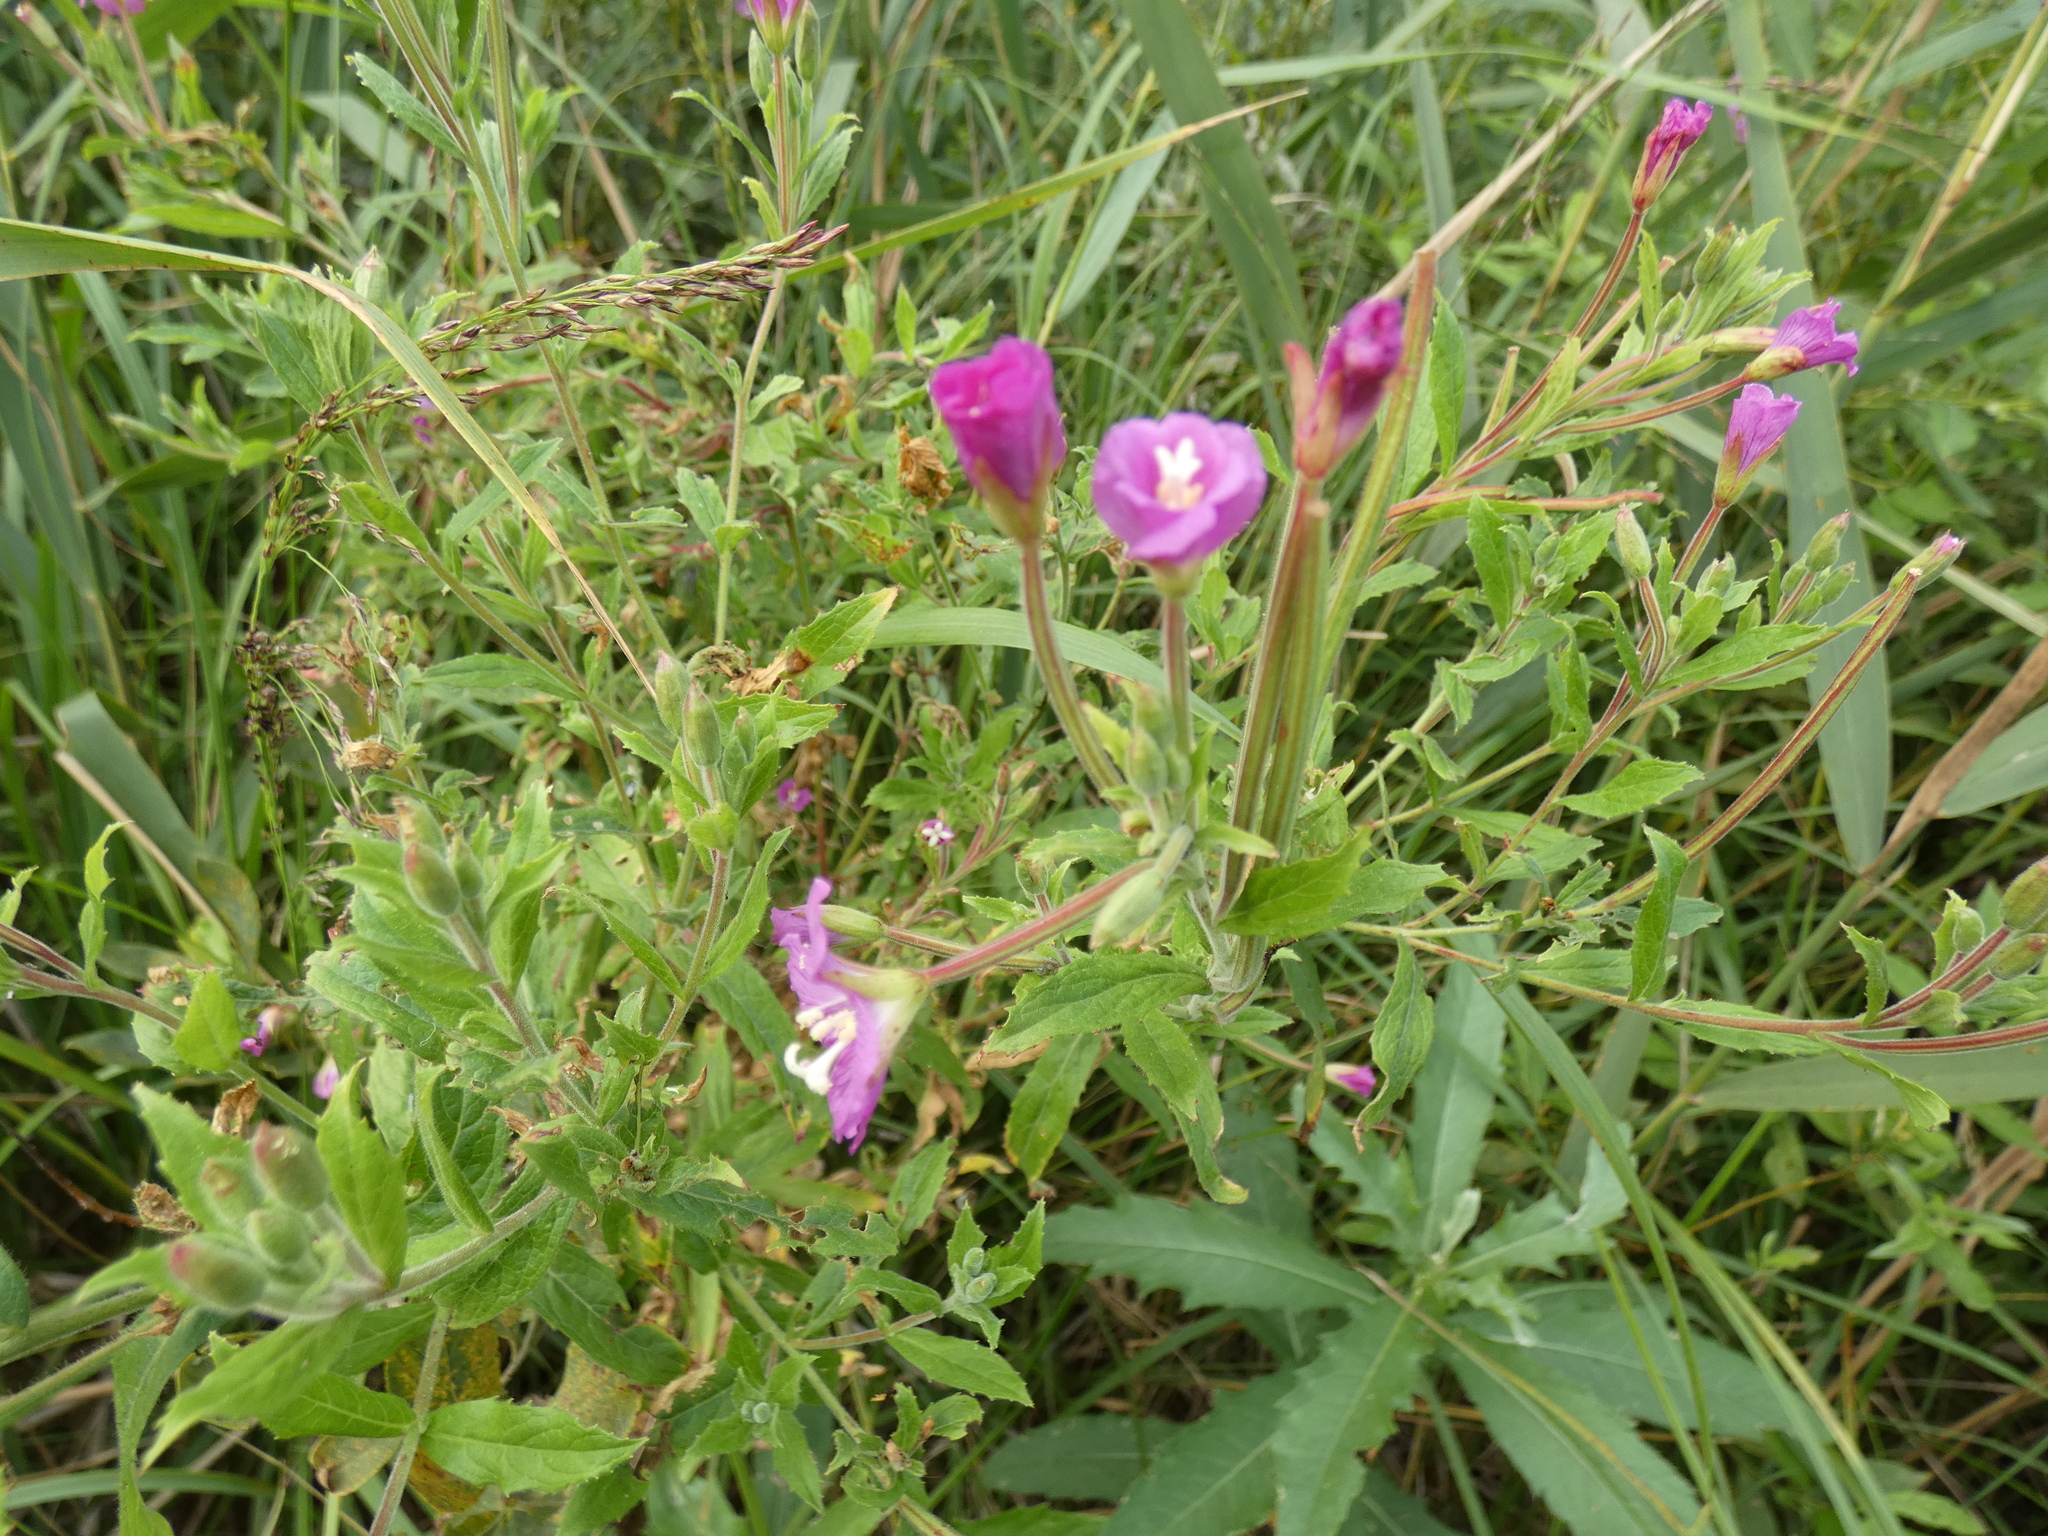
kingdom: Plantae
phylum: Tracheophyta
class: Magnoliopsida
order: Myrtales
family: Onagraceae
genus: Epilobium
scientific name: Epilobium hirsutum
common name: Great willowherb
